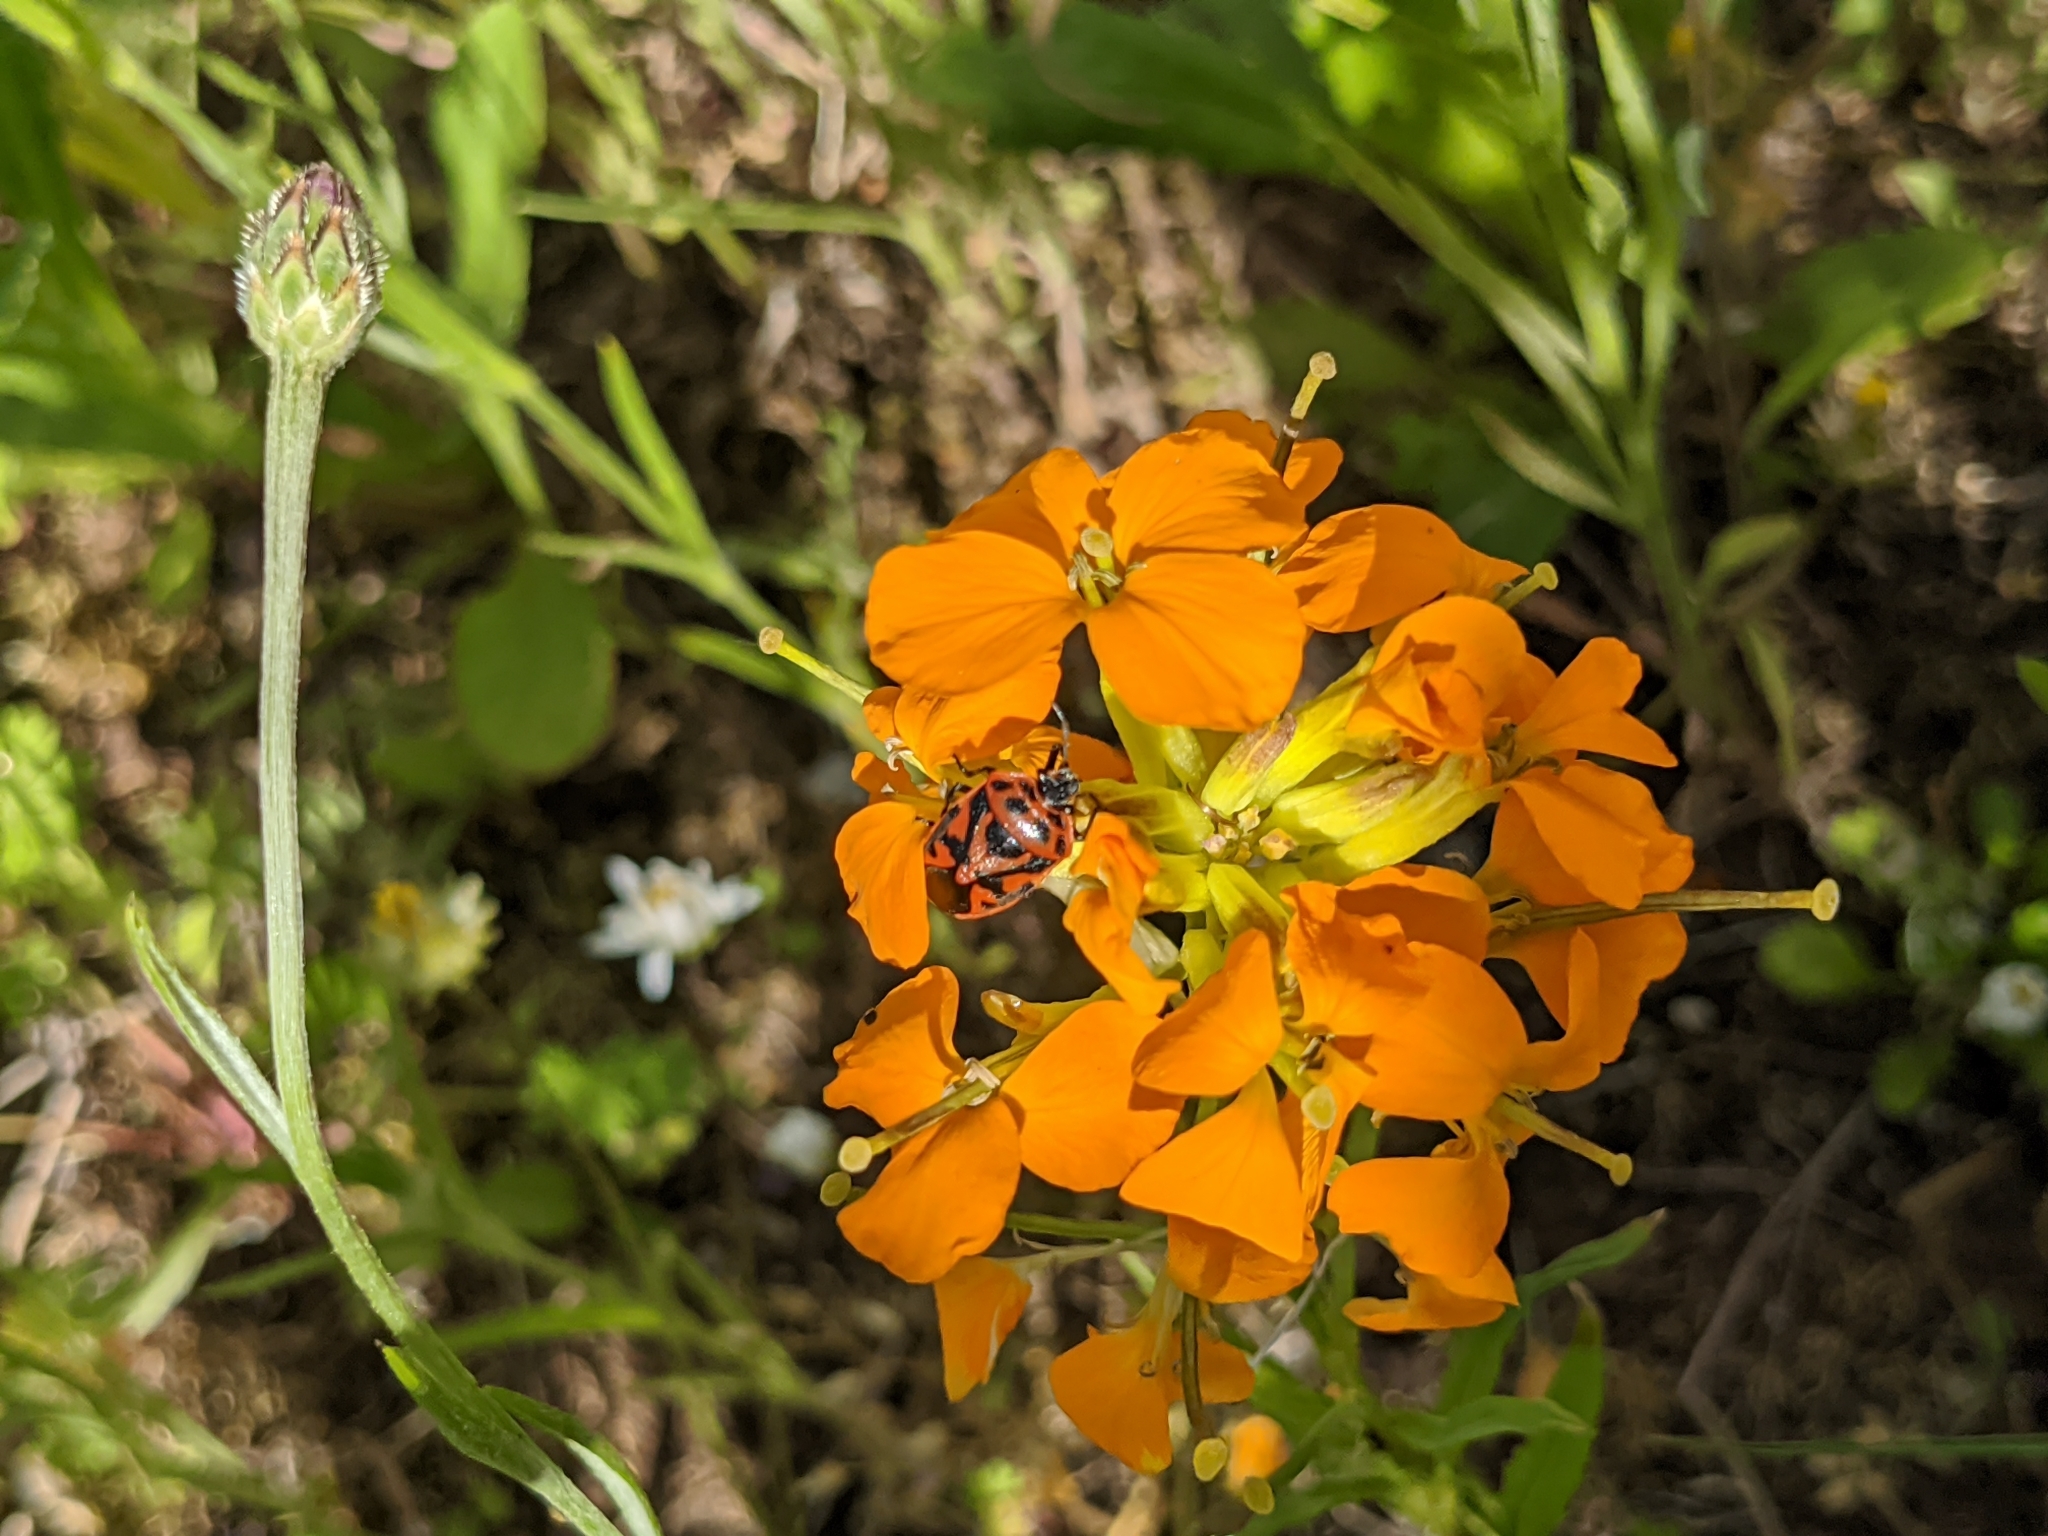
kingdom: Animalia
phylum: Arthropoda
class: Insecta
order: Hemiptera
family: Pentatomidae
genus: Eurydema
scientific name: Eurydema ornata
